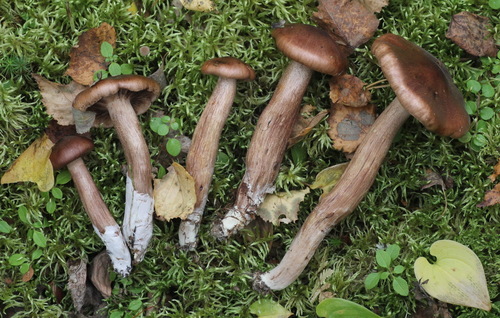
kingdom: Fungi
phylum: Basidiomycota
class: Agaricomycetes
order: Agaricales
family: Tricholomataceae
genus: Tricholoma
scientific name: Tricholoma fulvum
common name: Birch knight
